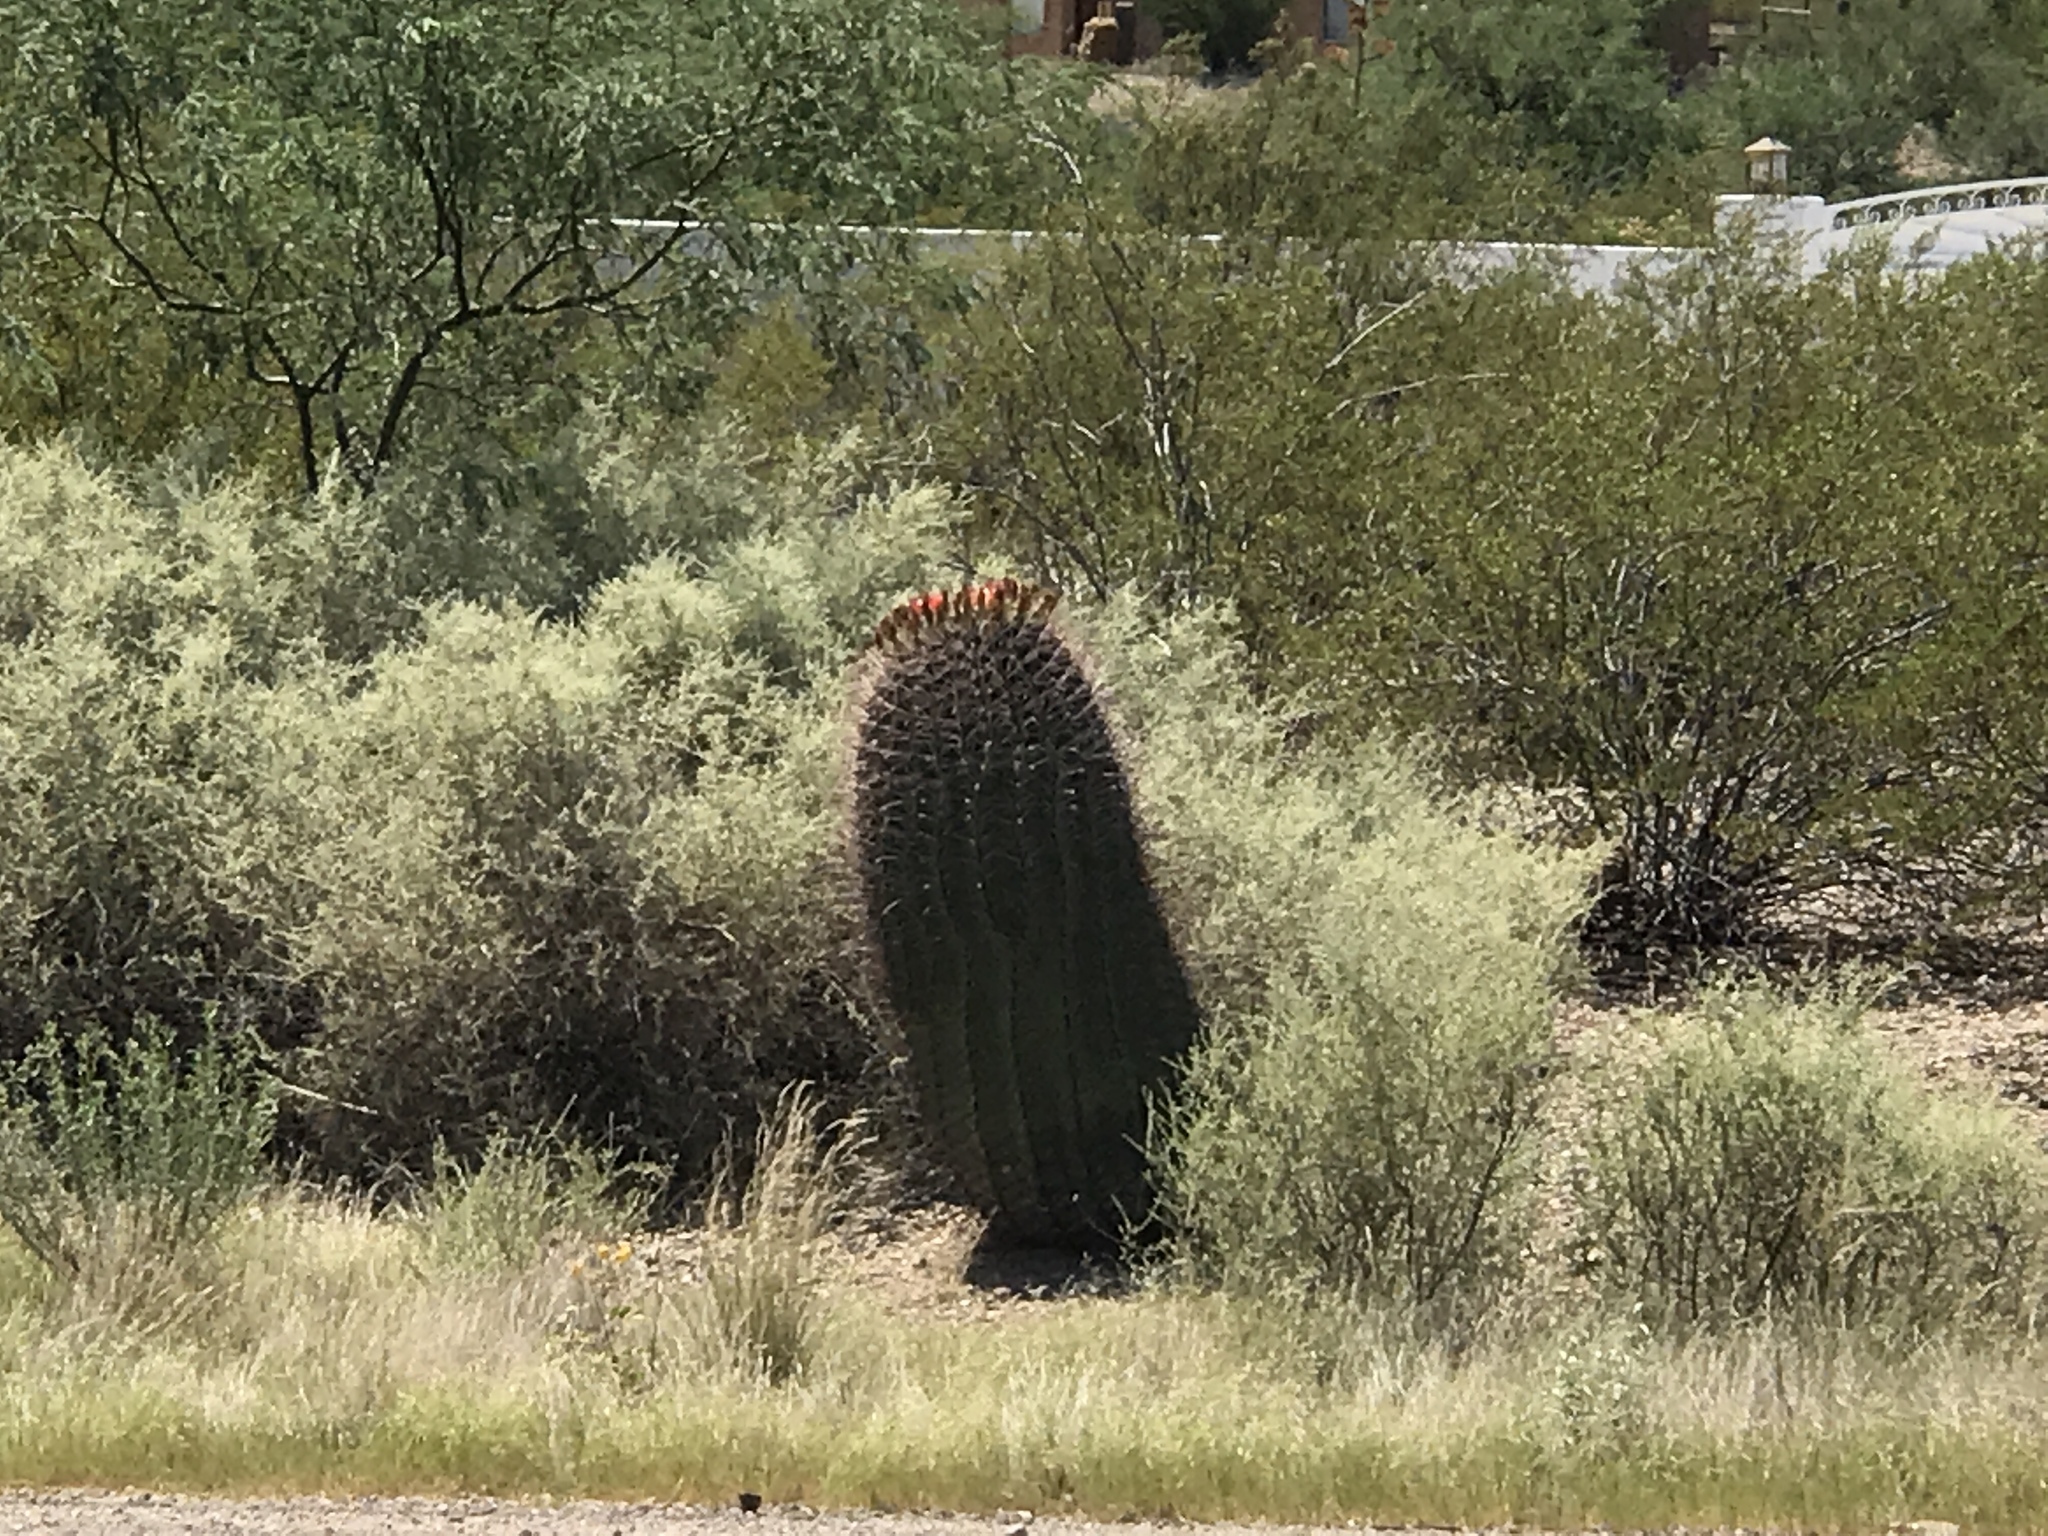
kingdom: Plantae
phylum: Tracheophyta
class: Magnoliopsida
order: Caryophyllales
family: Cactaceae
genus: Ferocactus
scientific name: Ferocactus wislizeni
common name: Candy barrel cactus
